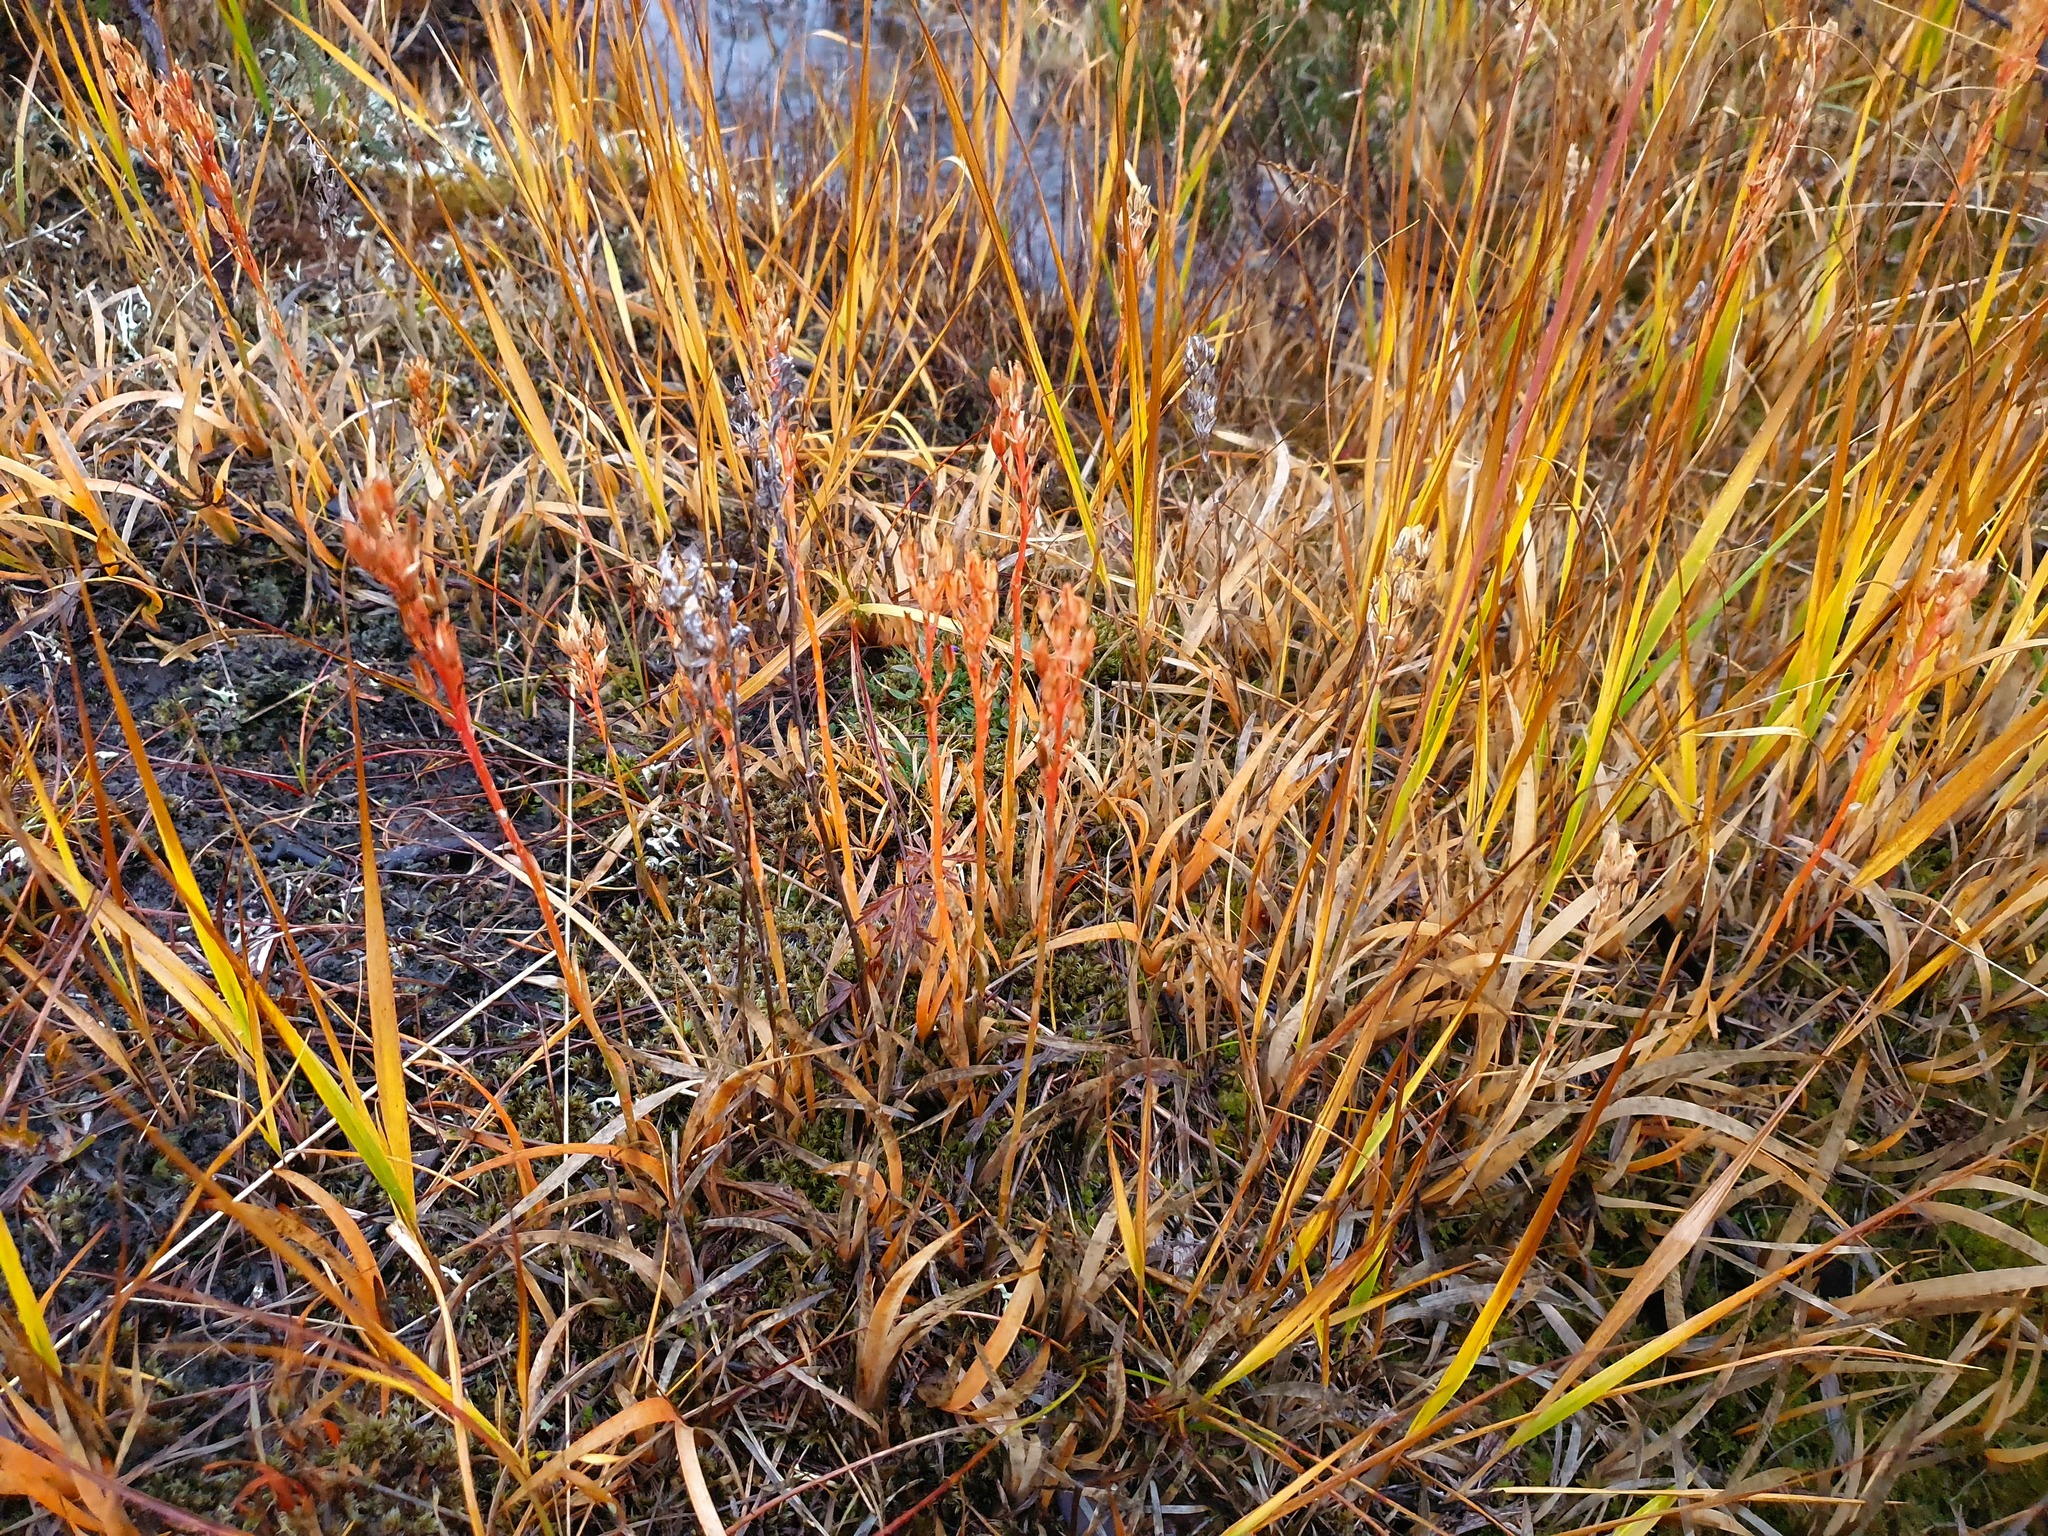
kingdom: Plantae
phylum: Tracheophyta
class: Liliopsida
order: Dioscoreales
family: Nartheciaceae
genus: Narthecium
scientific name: Narthecium ossifragum
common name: Bog asphodel
